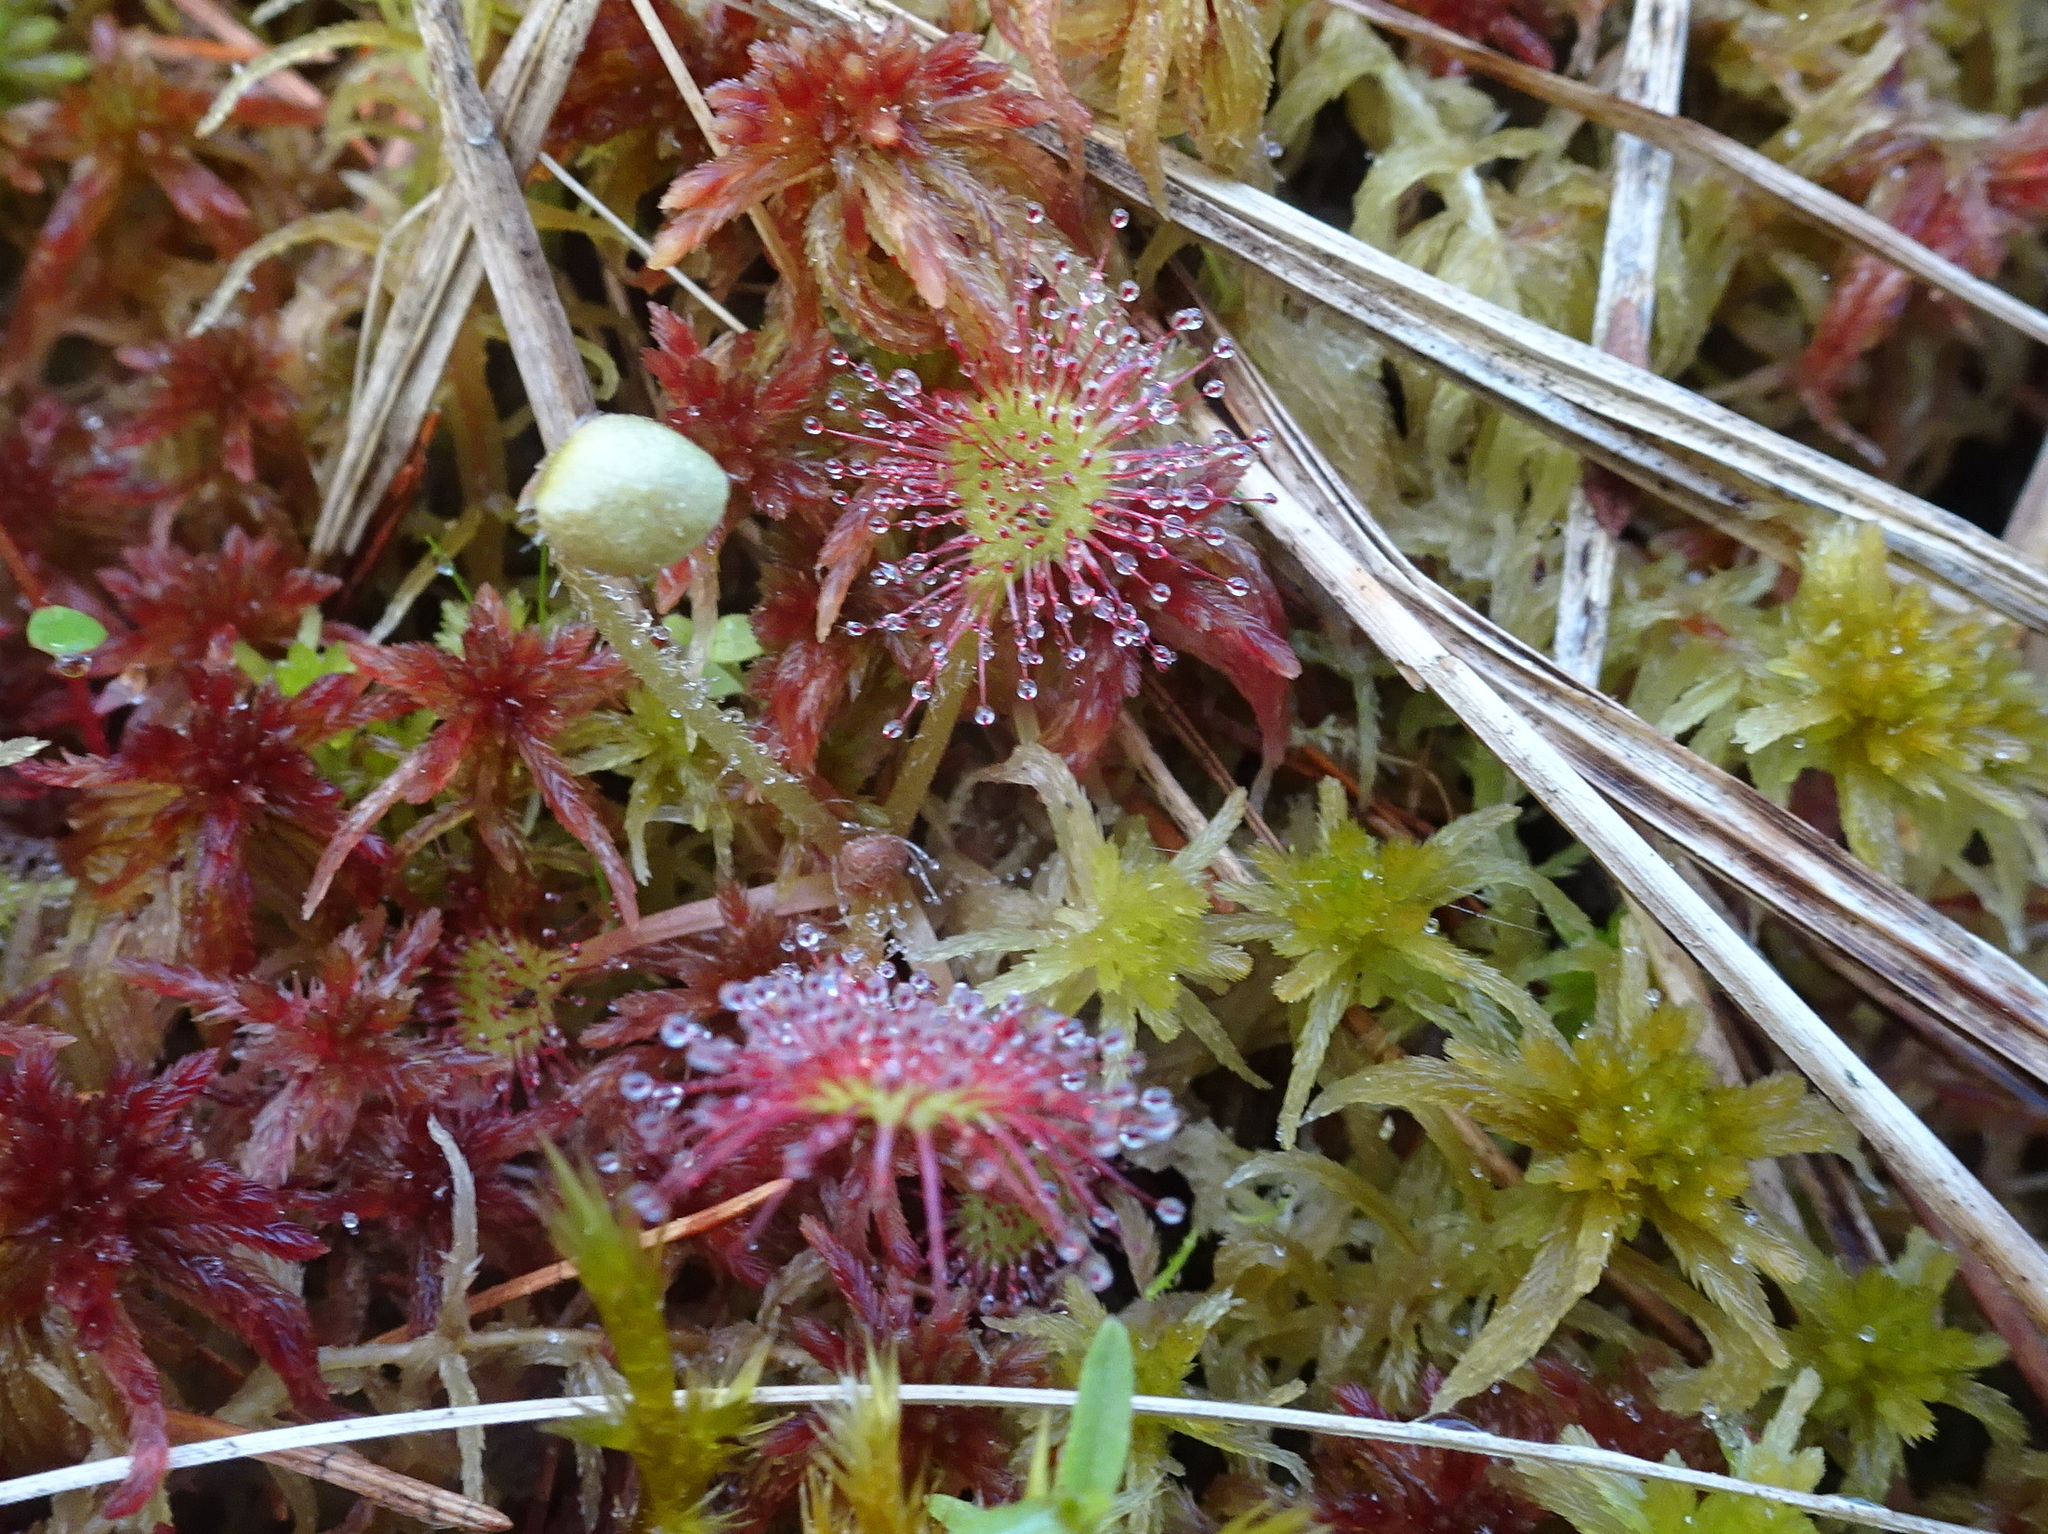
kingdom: Plantae
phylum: Tracheophyta
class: Magnoliopsida
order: Caryophyllales
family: Droseraceae
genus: Drosera
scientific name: Drosera rotundifolia
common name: Round-leaved sundew
